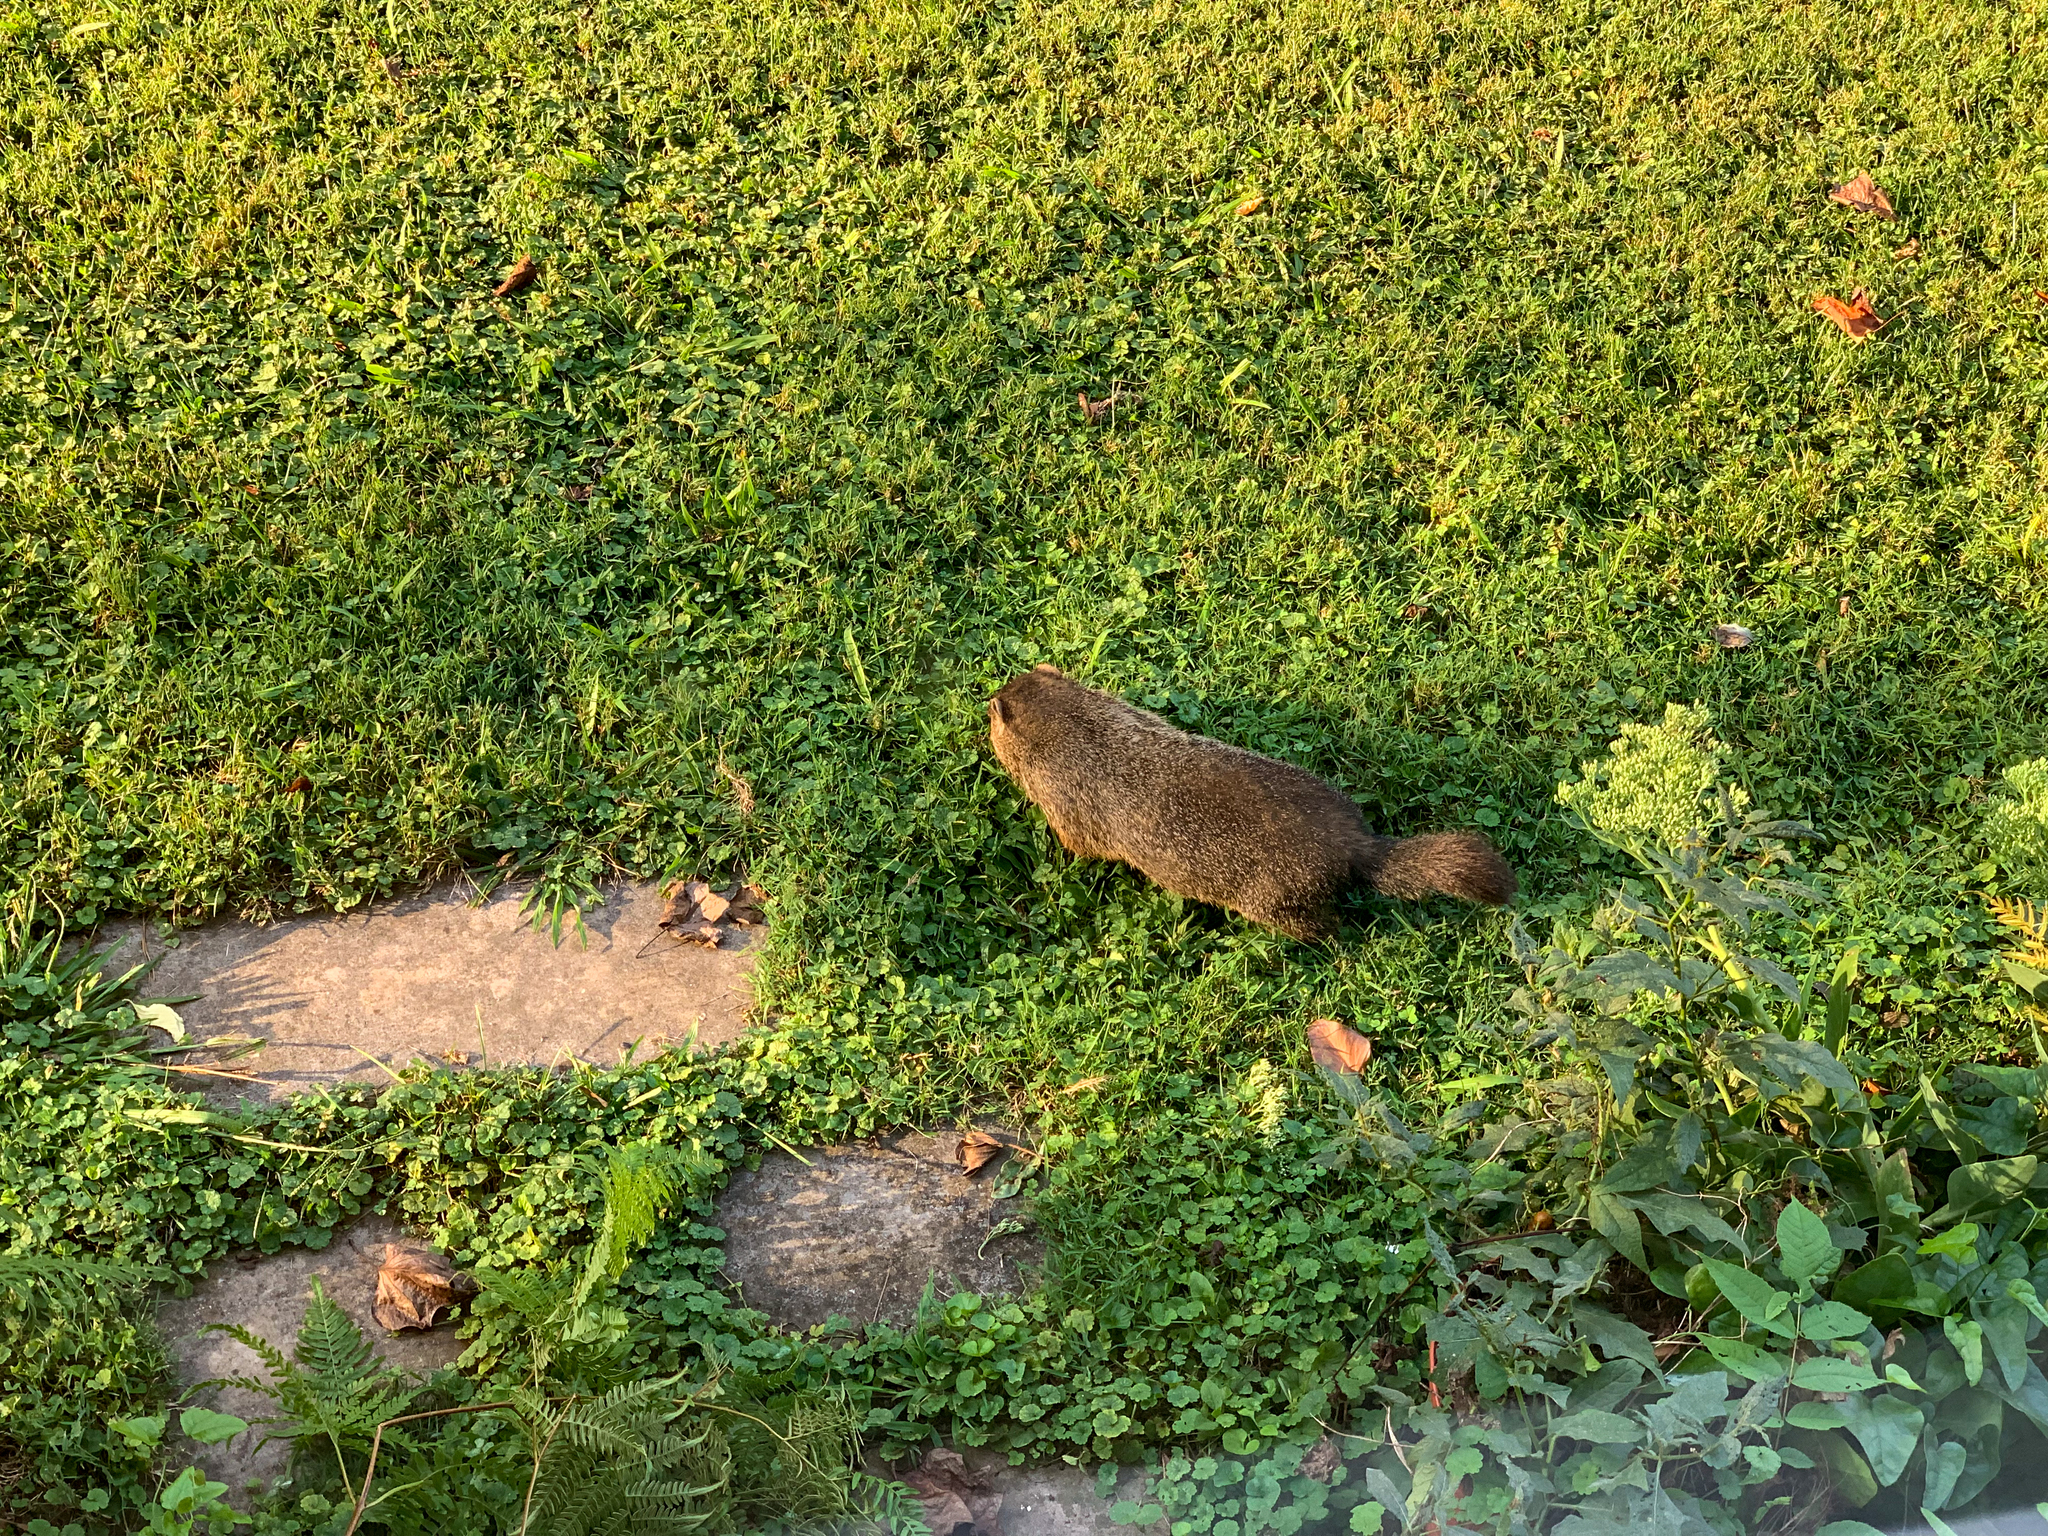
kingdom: Animalia
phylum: Chordata
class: Mammalia
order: Rodentia
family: Sciuridae
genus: Marmota
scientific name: Marmota monax
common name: Groundhog
